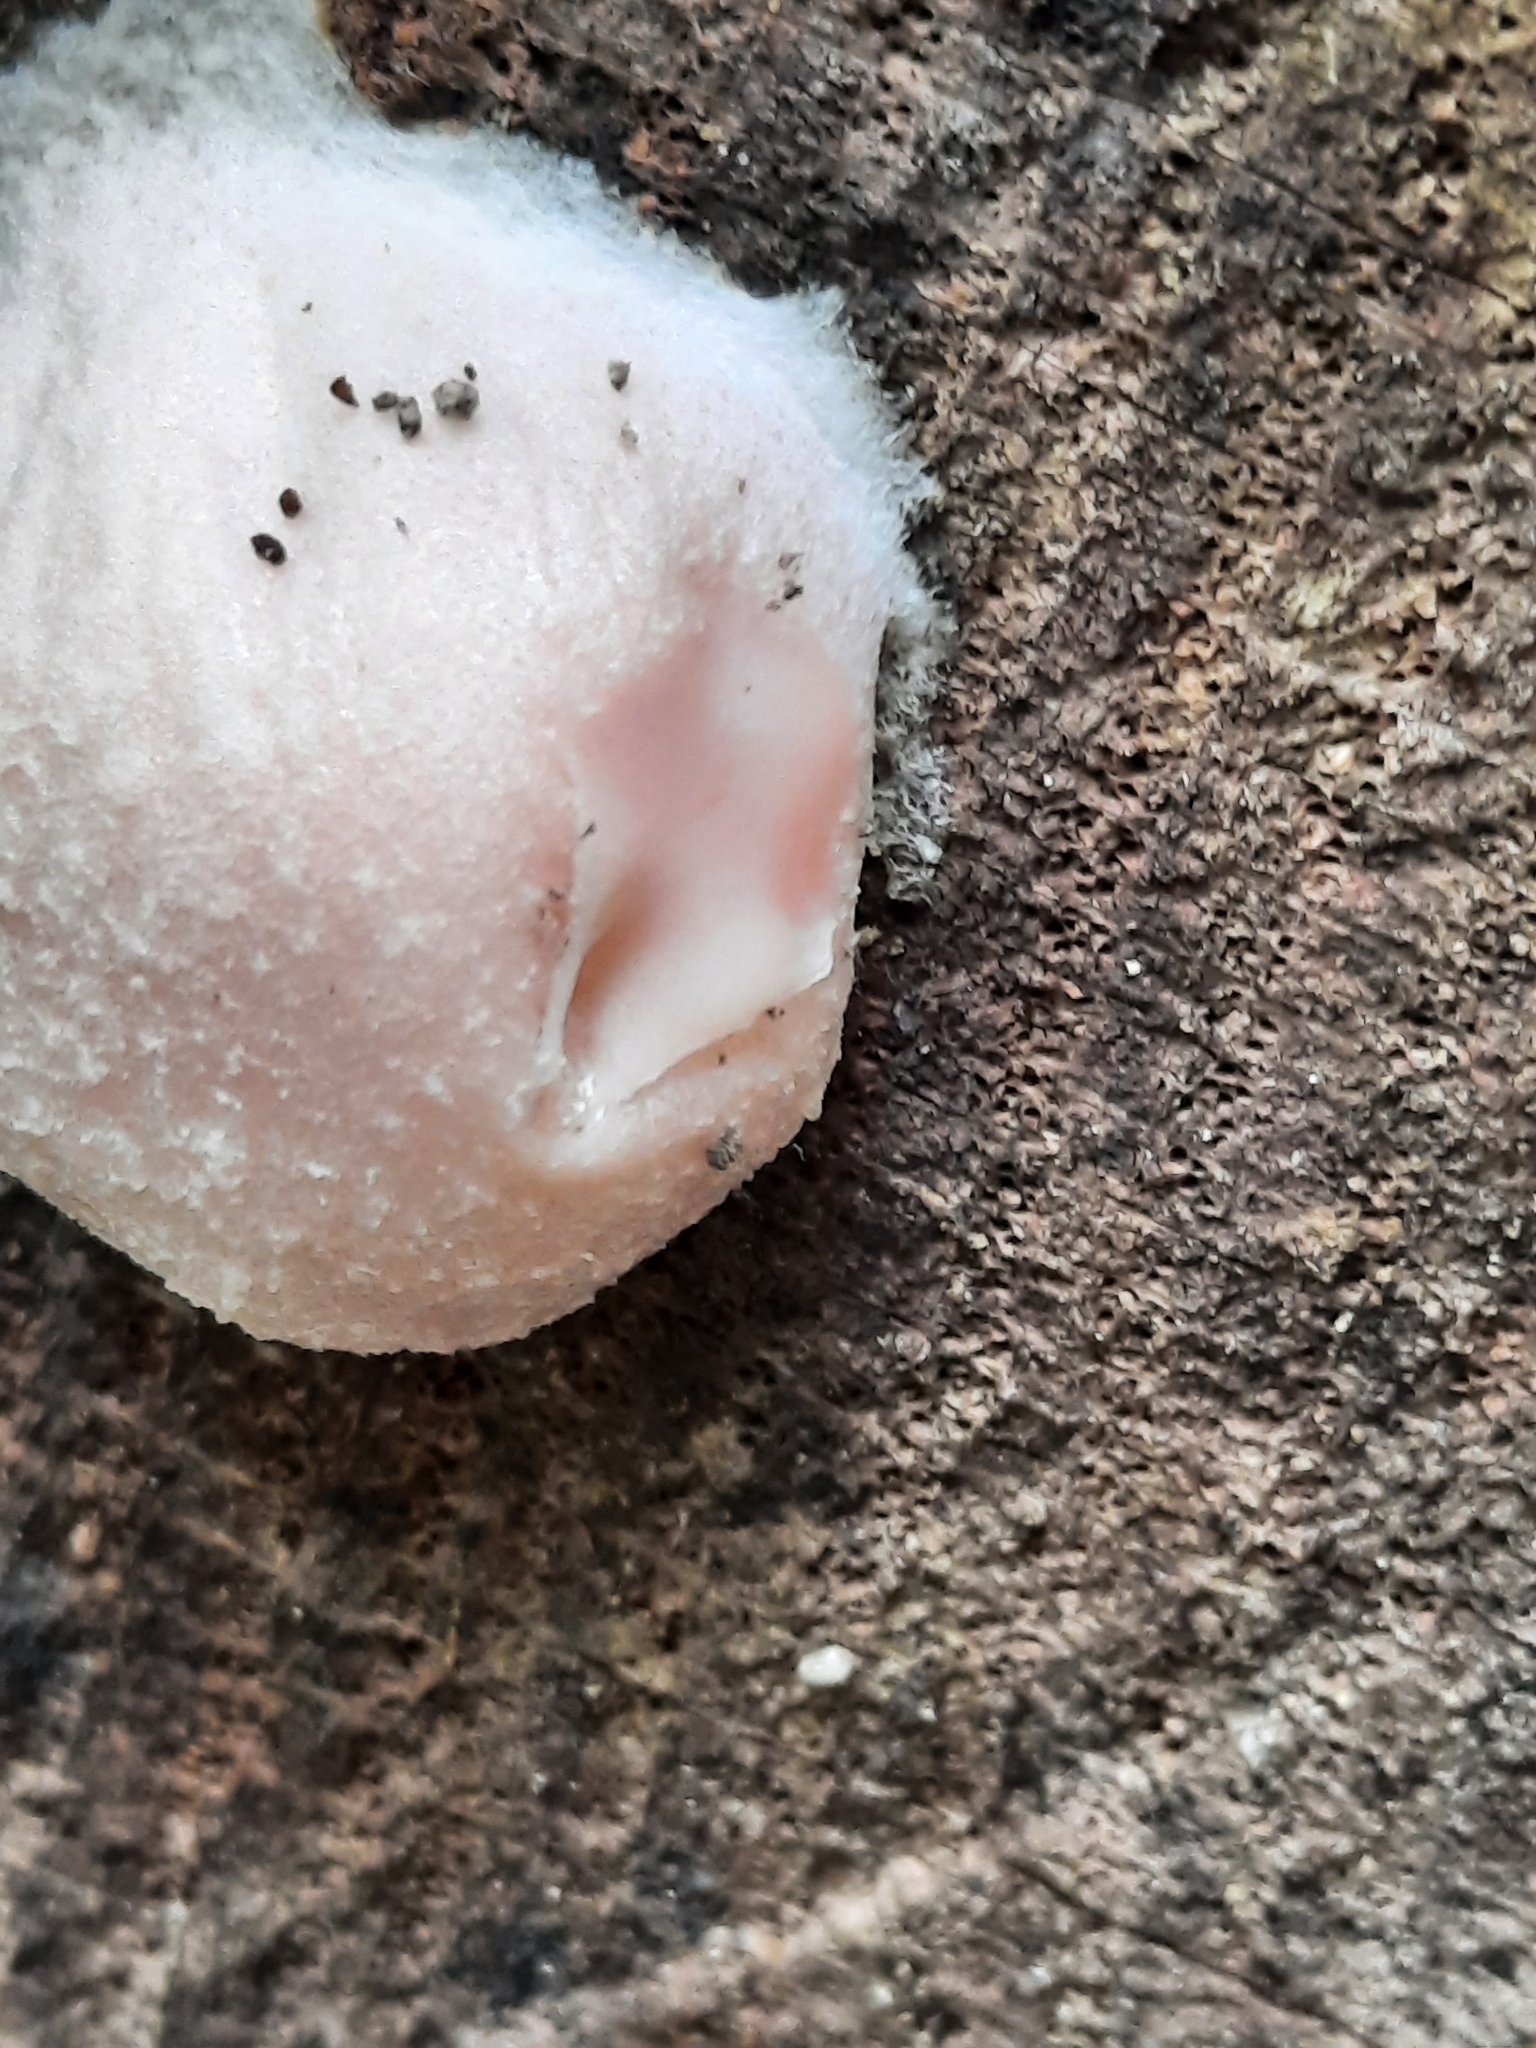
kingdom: Protozoa
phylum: Mycetozoa
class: Myxomycetes
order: Cribrariales
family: Tubiferaceae
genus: Reticularia
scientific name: Reticularia lycoperdon
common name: False puffball
